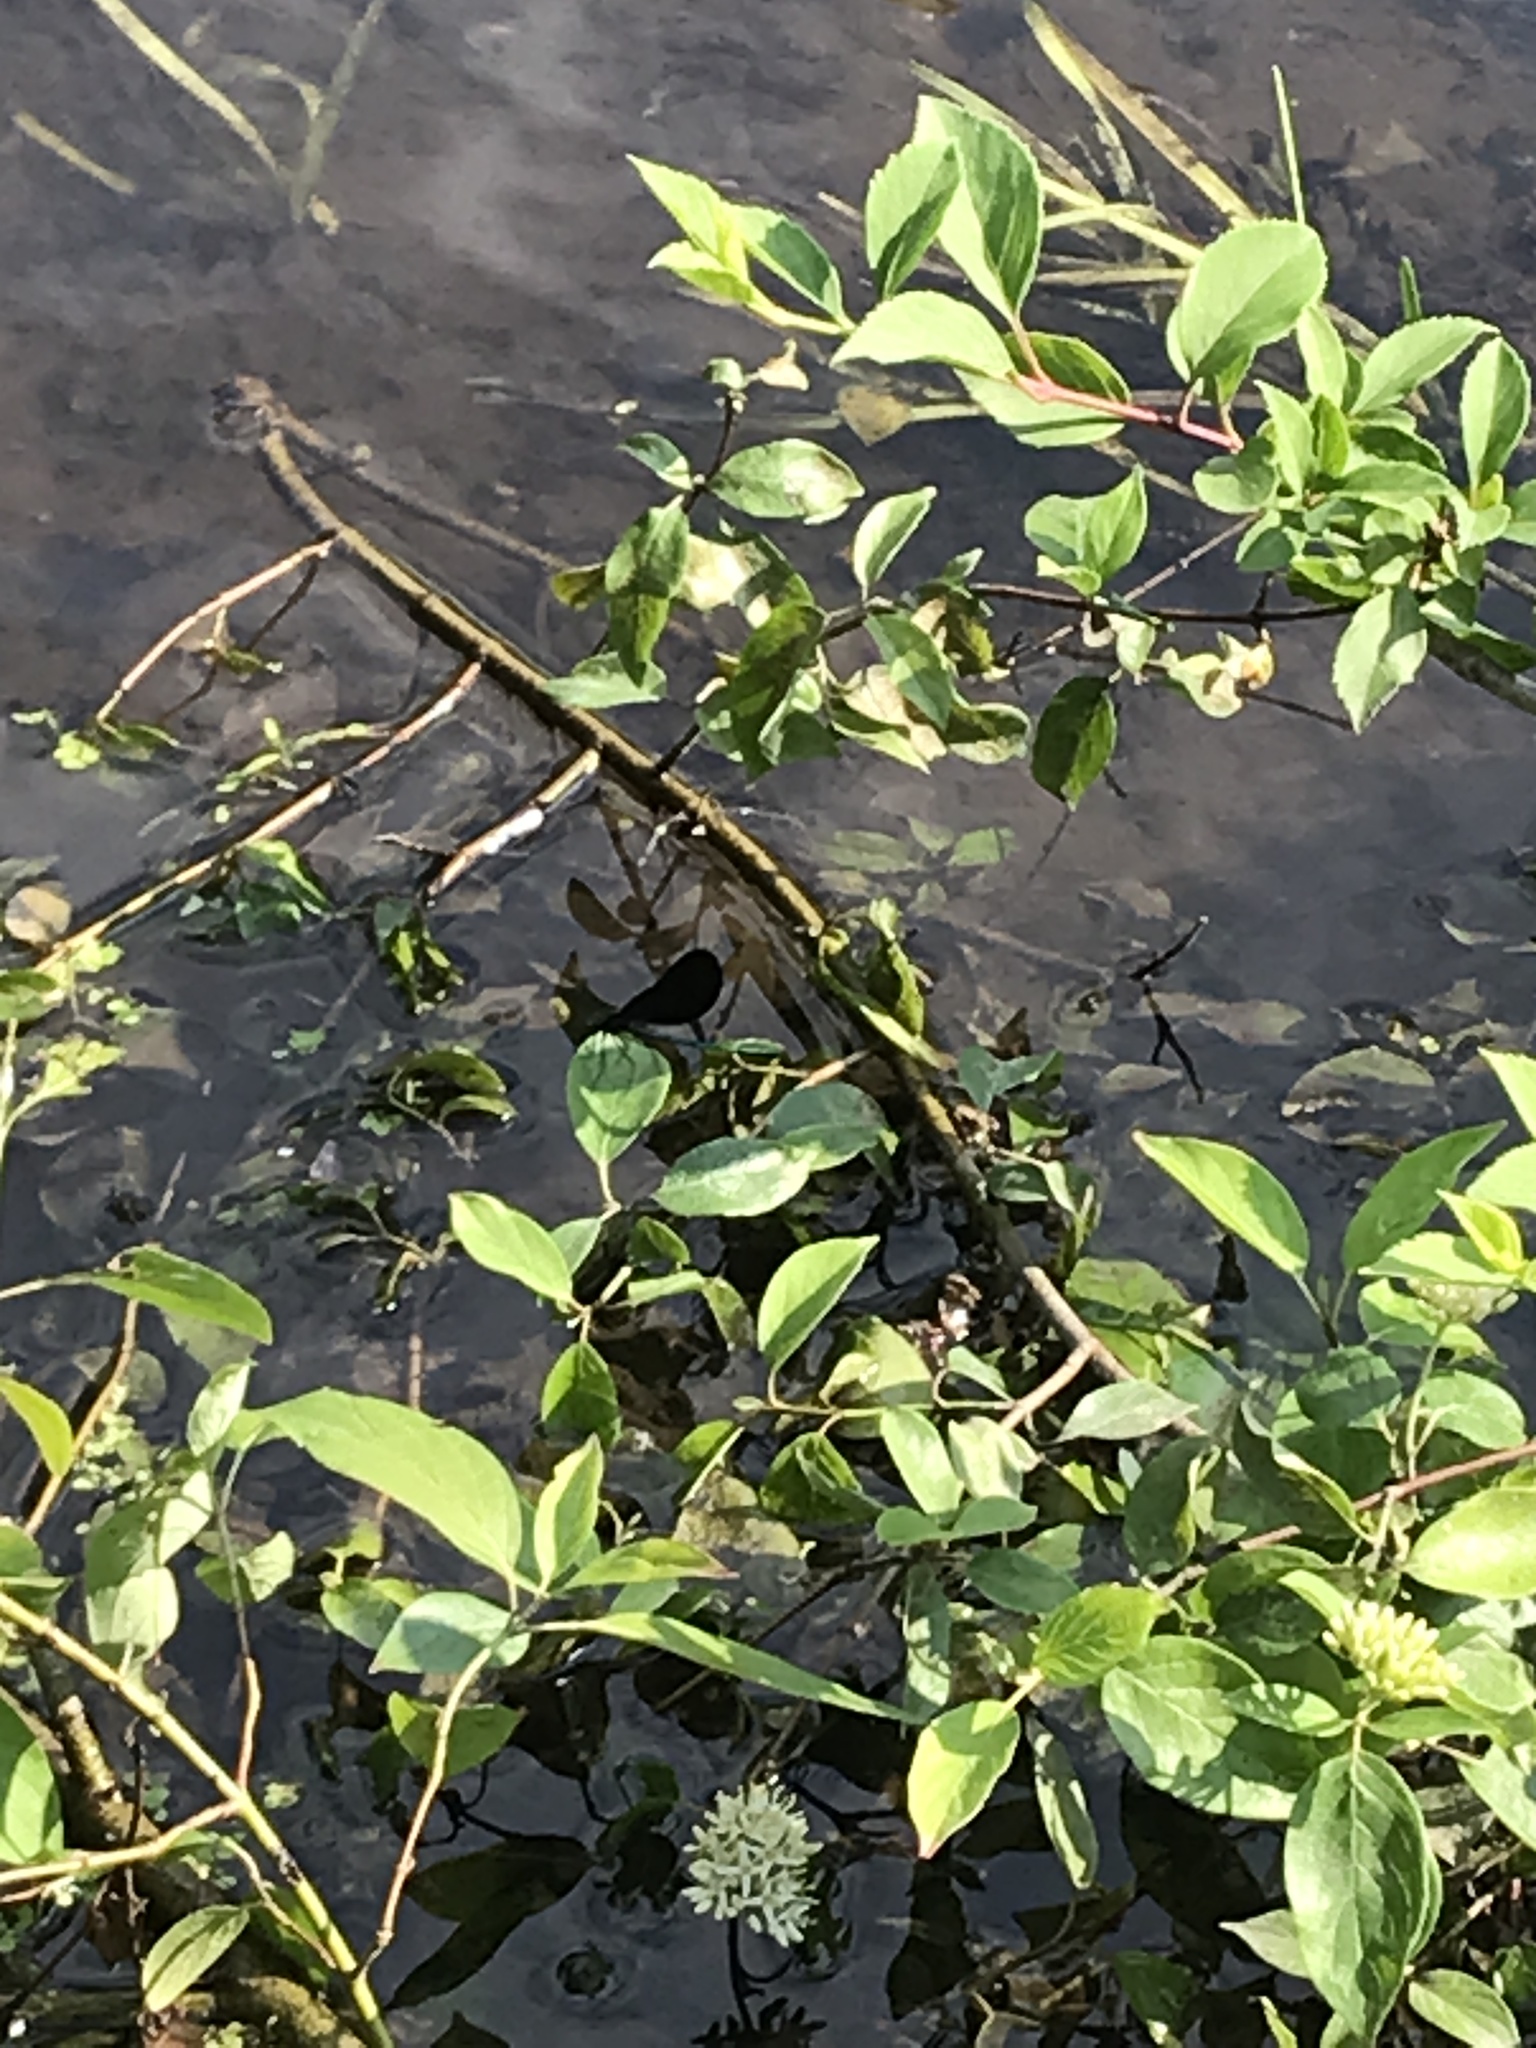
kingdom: Animalia
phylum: Arthropoda
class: Insecta
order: Odonata
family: Calopterygidae
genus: Calopteryx
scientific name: Calopteryx maculata
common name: Ebony jewelwing
